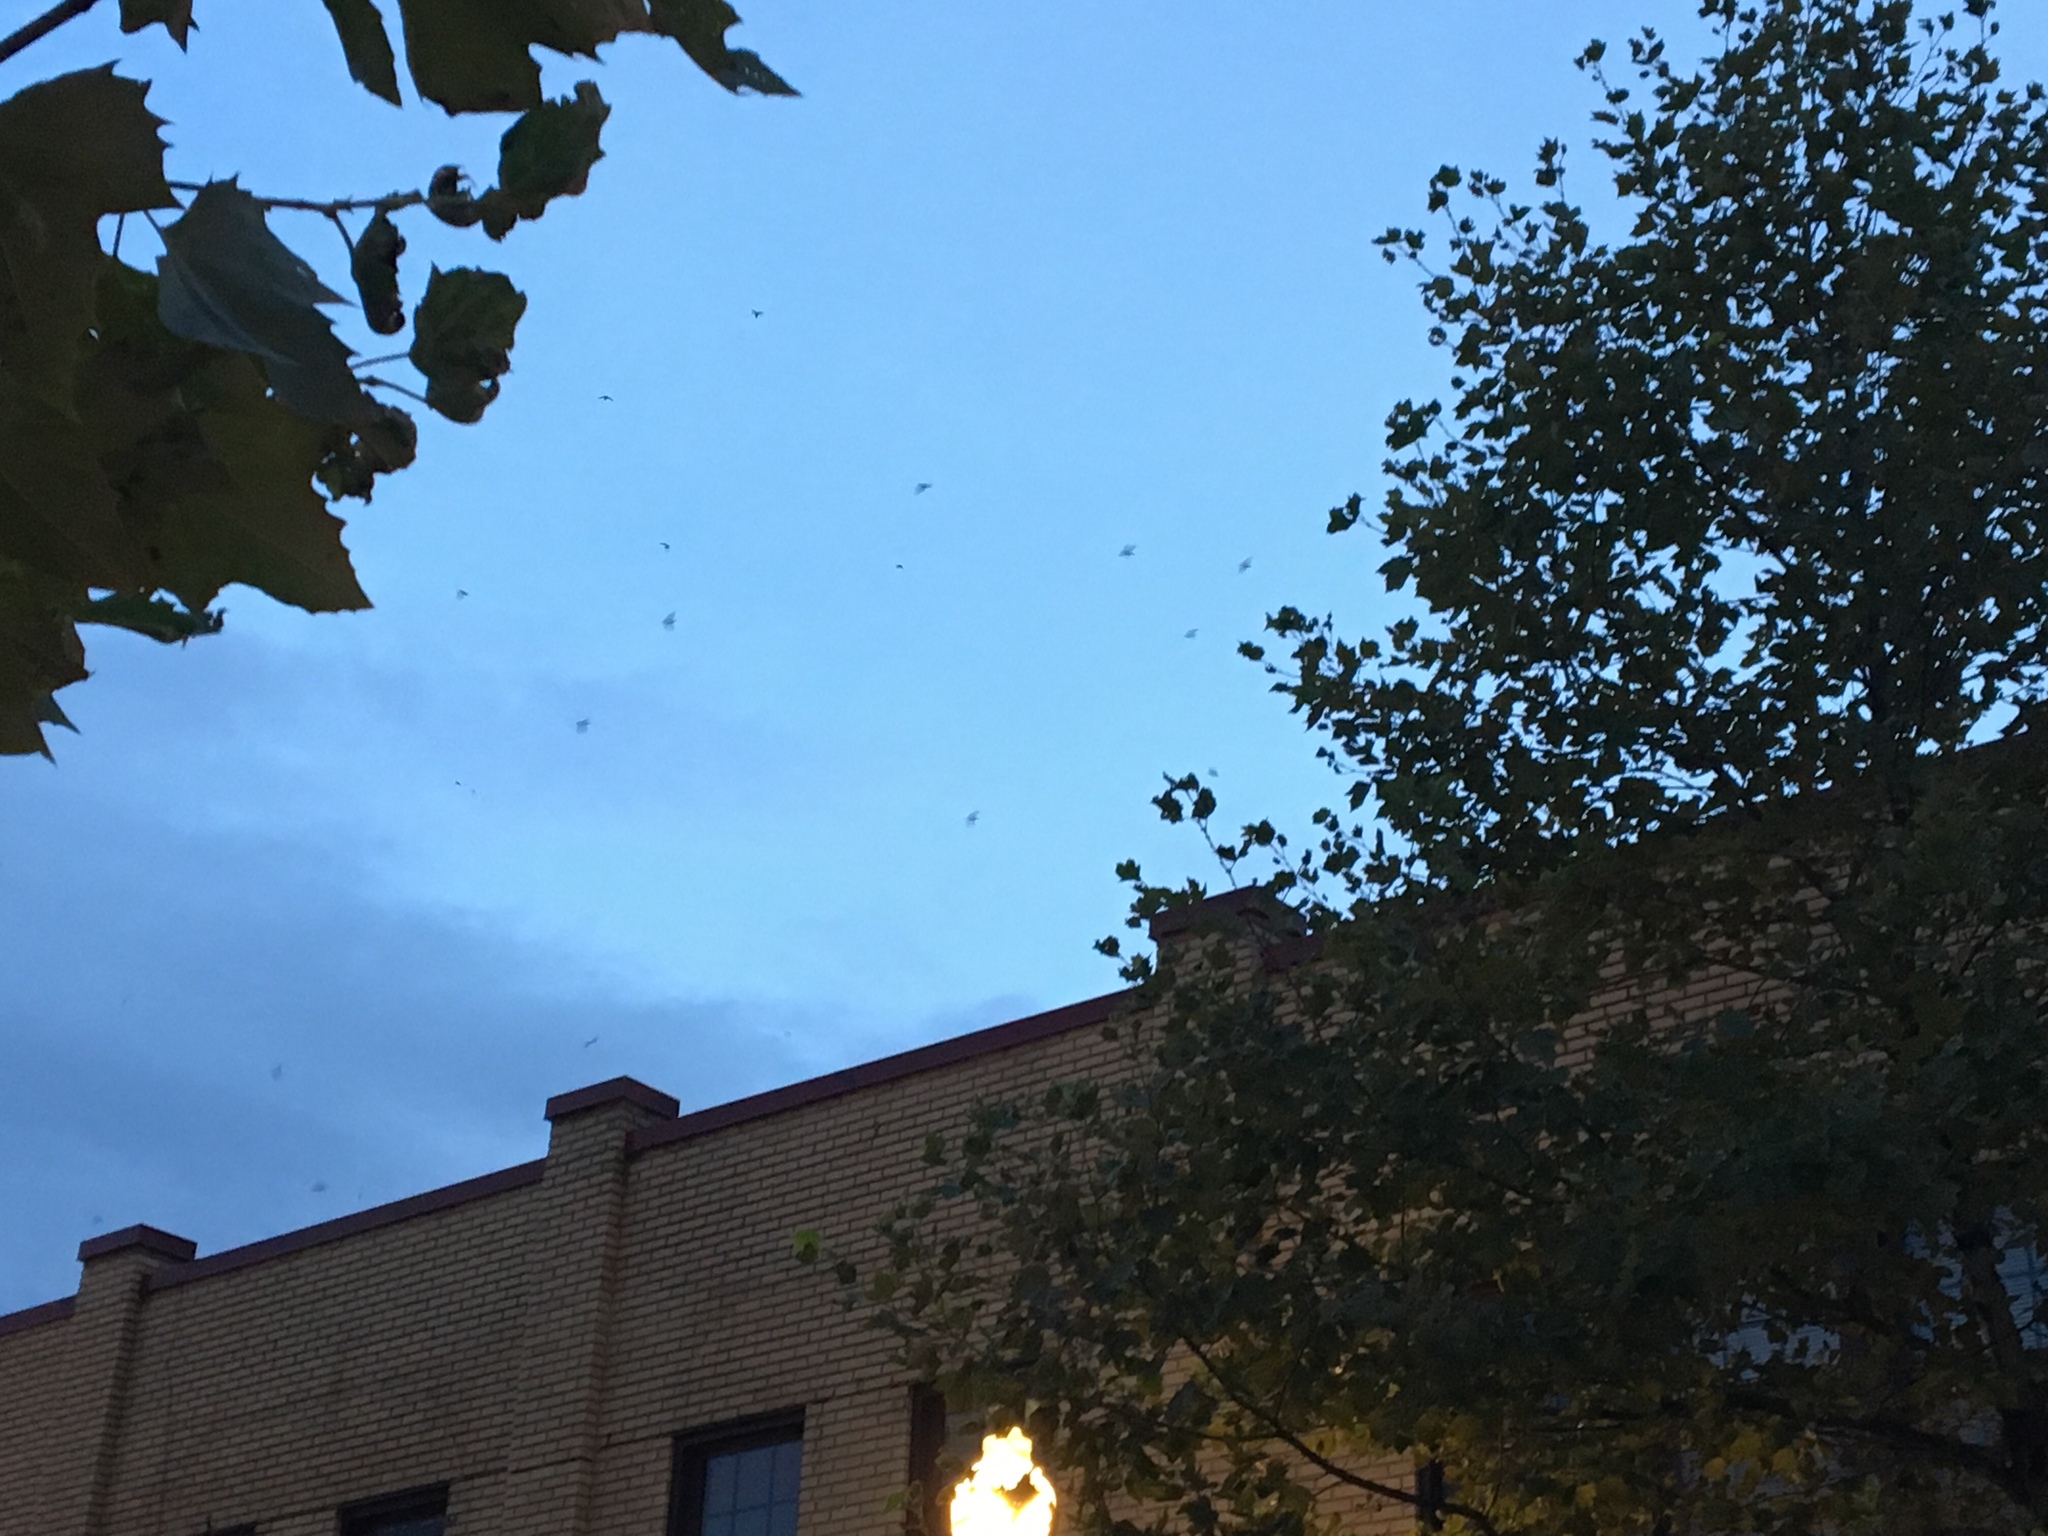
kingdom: Animalia
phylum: Chordata
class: Aves
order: Apodiformes
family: Apodidae
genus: Chaetura
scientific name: Chaetura pelagica
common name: Chimney swift
